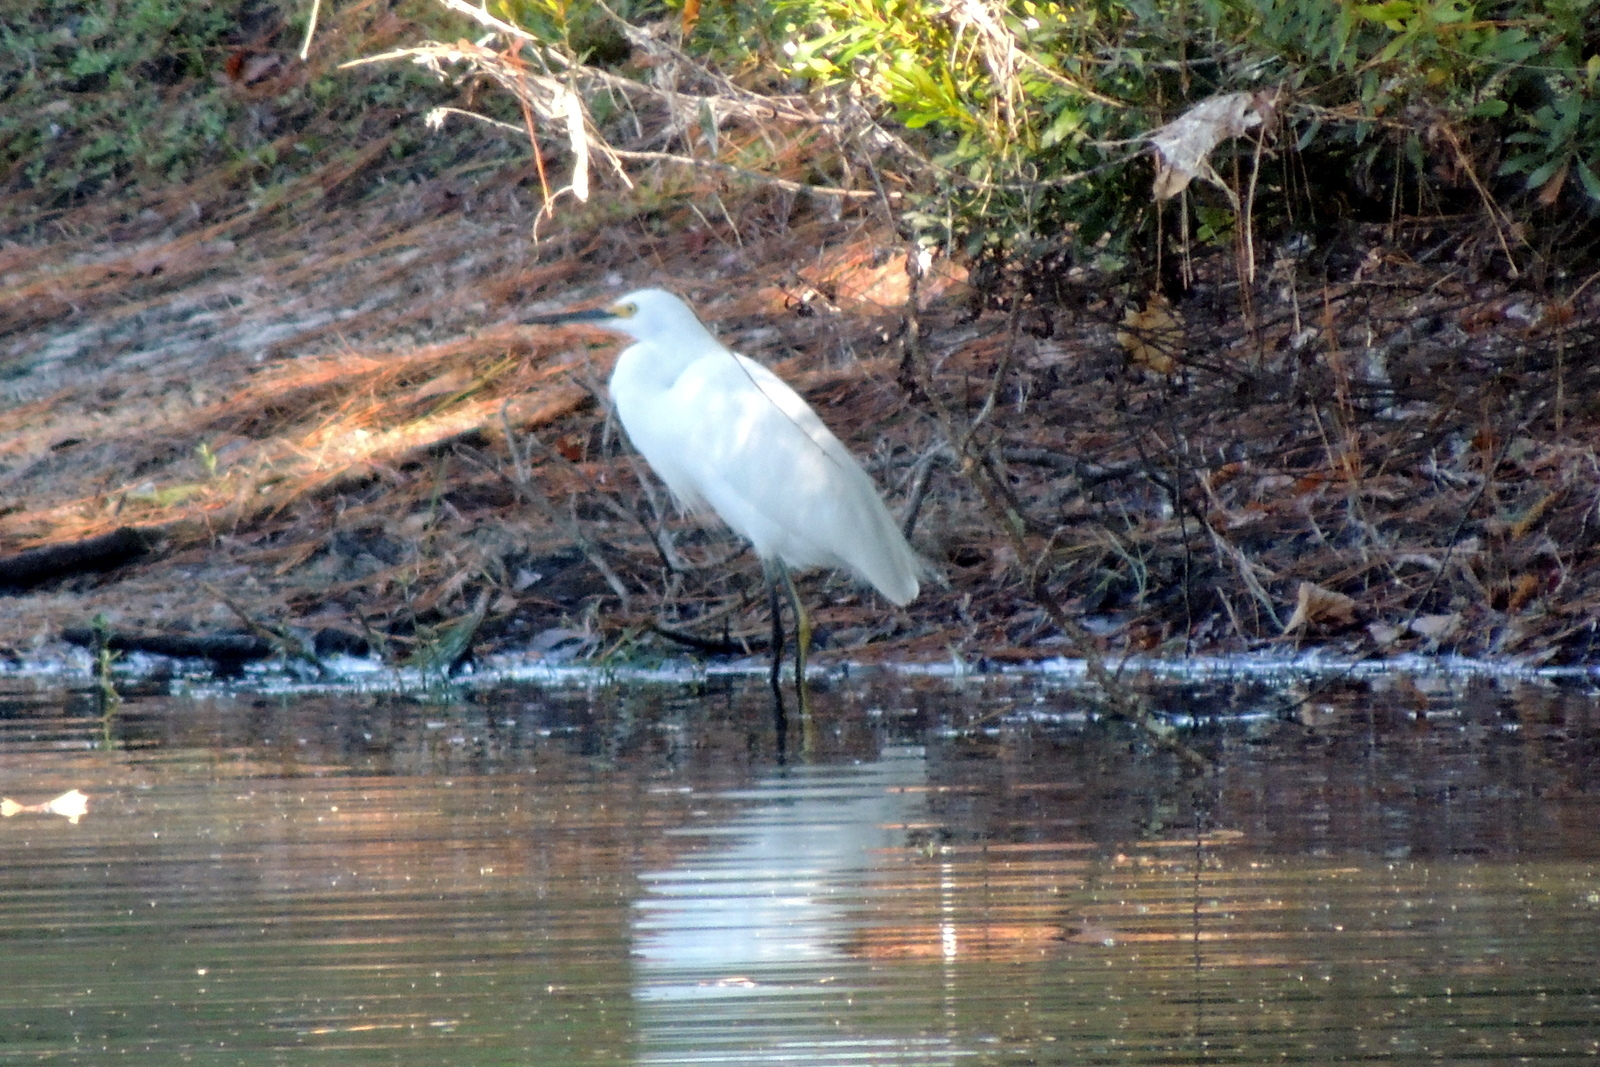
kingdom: Animalia
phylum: Chordata
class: Aves
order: Pelecaniformes
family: Ardeidae
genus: Egretta
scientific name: Egretta thula
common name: Snowy egret
